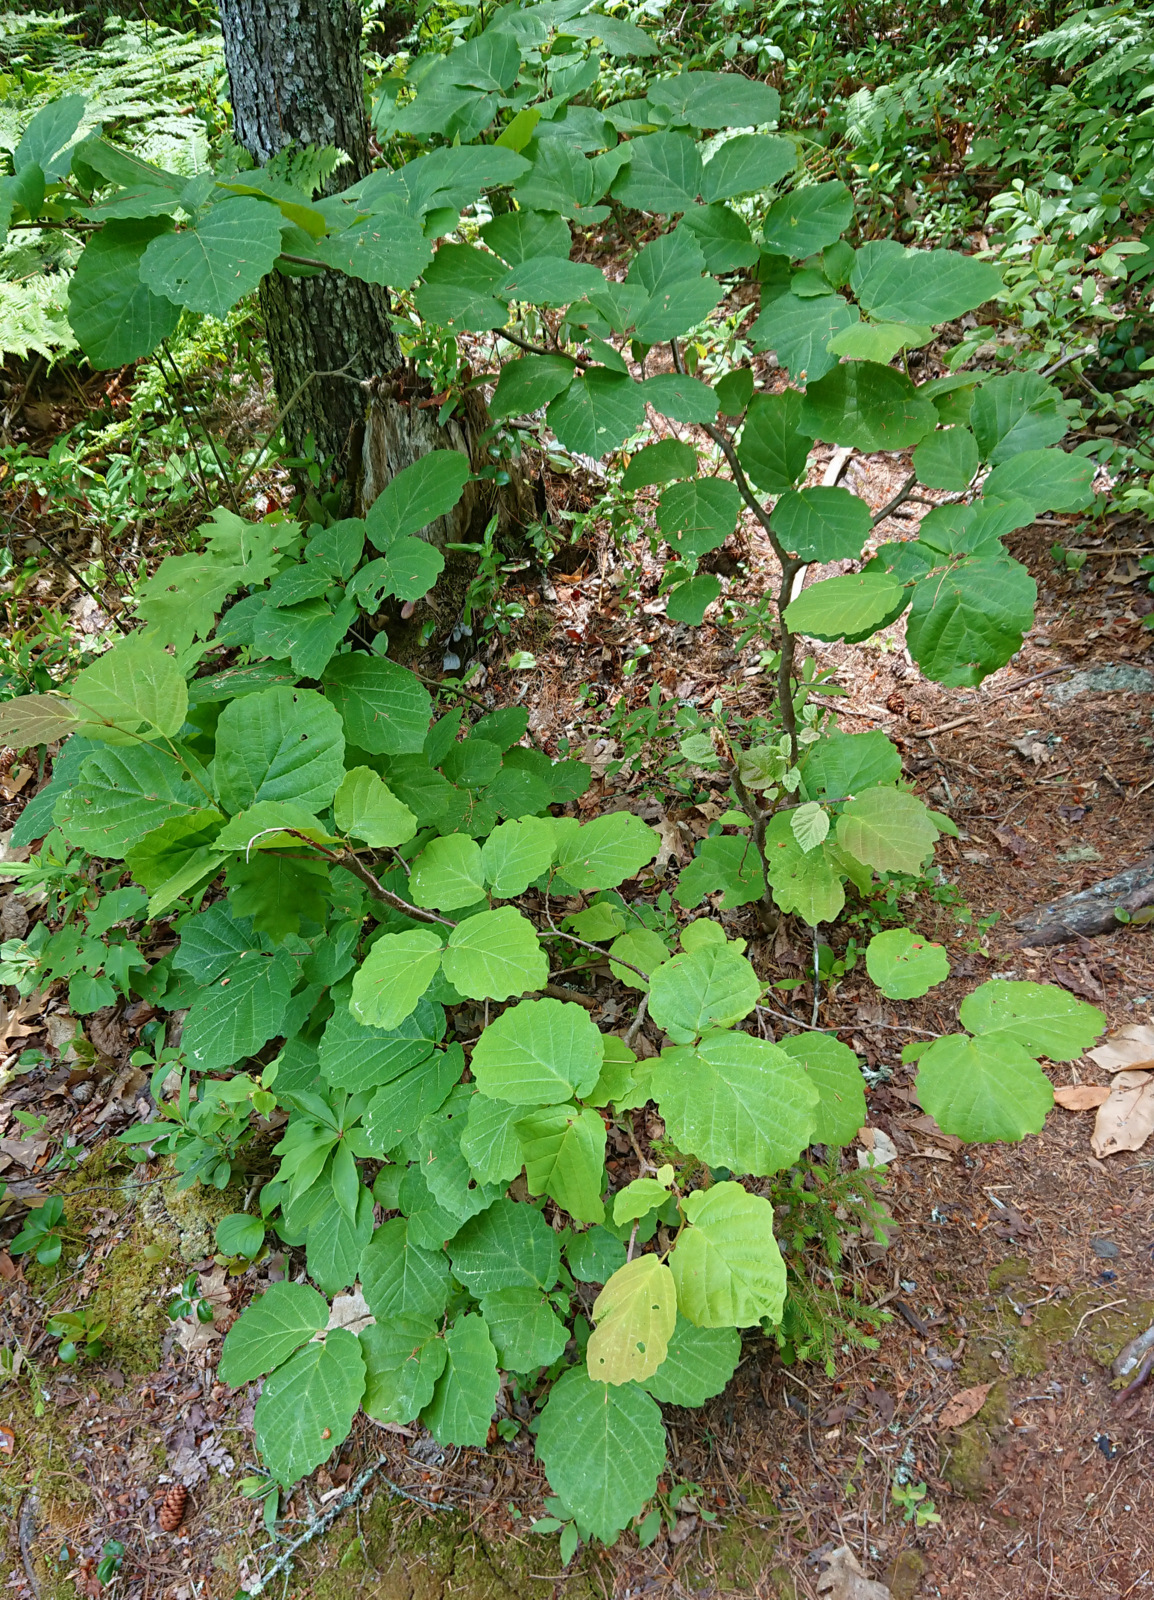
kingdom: Plantae
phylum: Tracheophyta
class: Magnoliopsida
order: Saxifragales
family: Hamamelidaceae
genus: Hamamelis
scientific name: Hamamelis virginiana
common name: Witch-hazel
